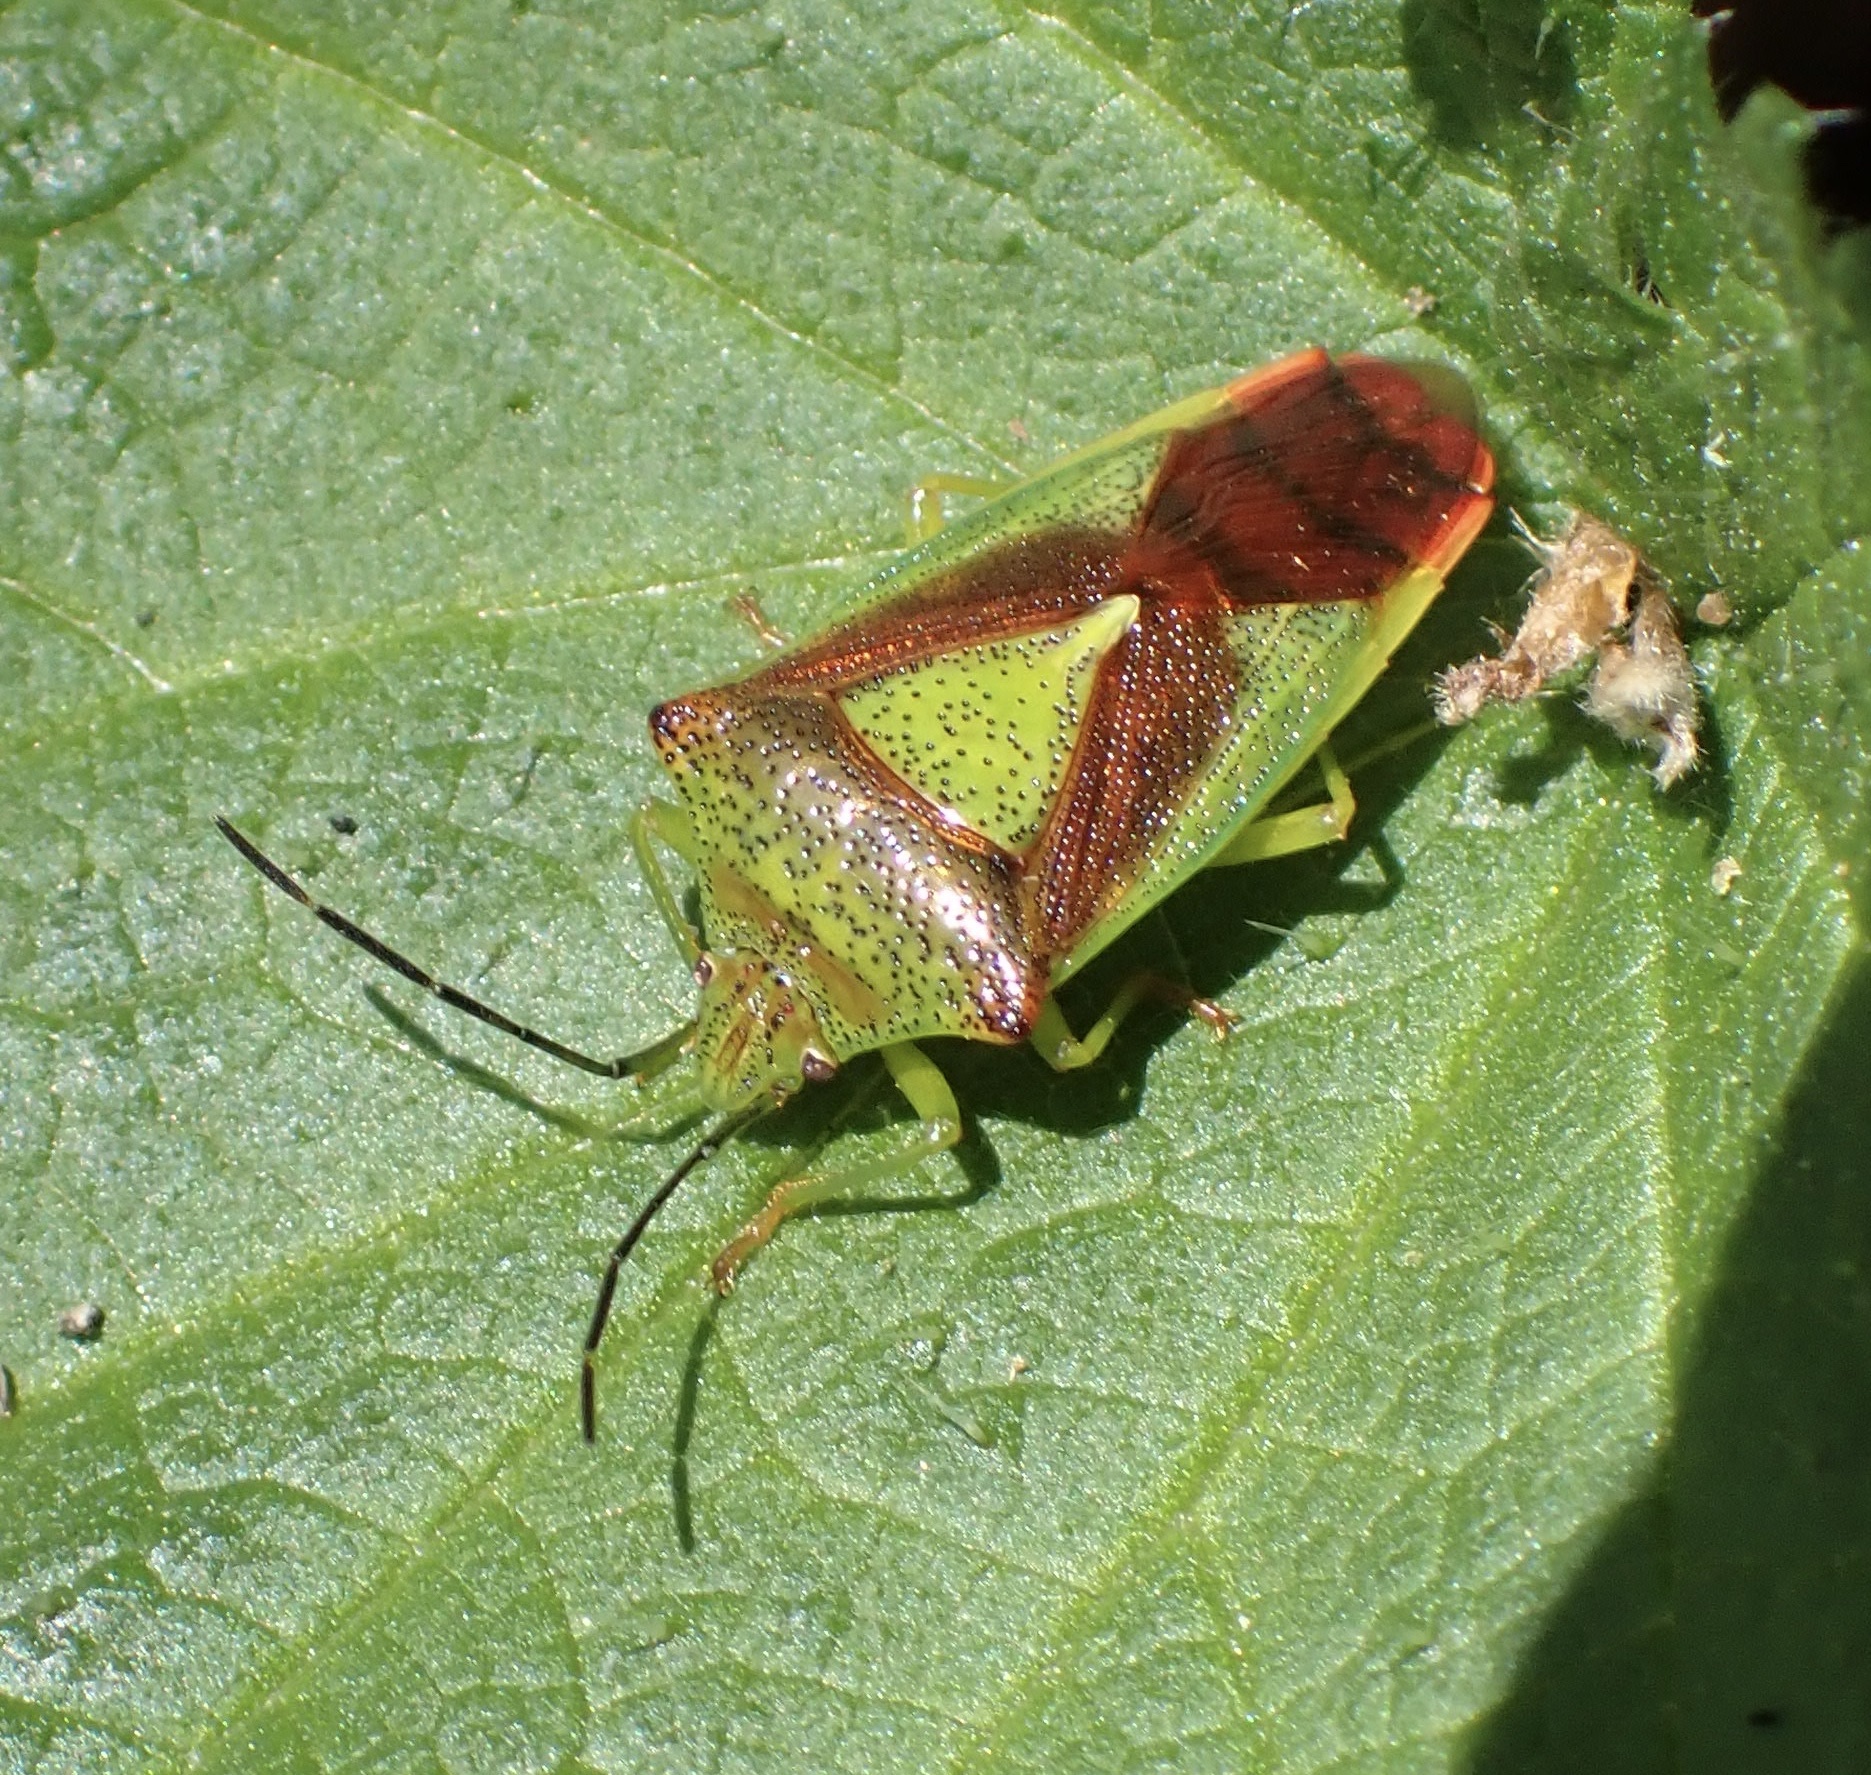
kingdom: Animalia
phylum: Arthropoda
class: Insecta
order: Hemiptera
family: Acanthosomatidae
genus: Acanthosoma
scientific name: Acanthosoma haemorrhoidale
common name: Hawthorn shieldbug
